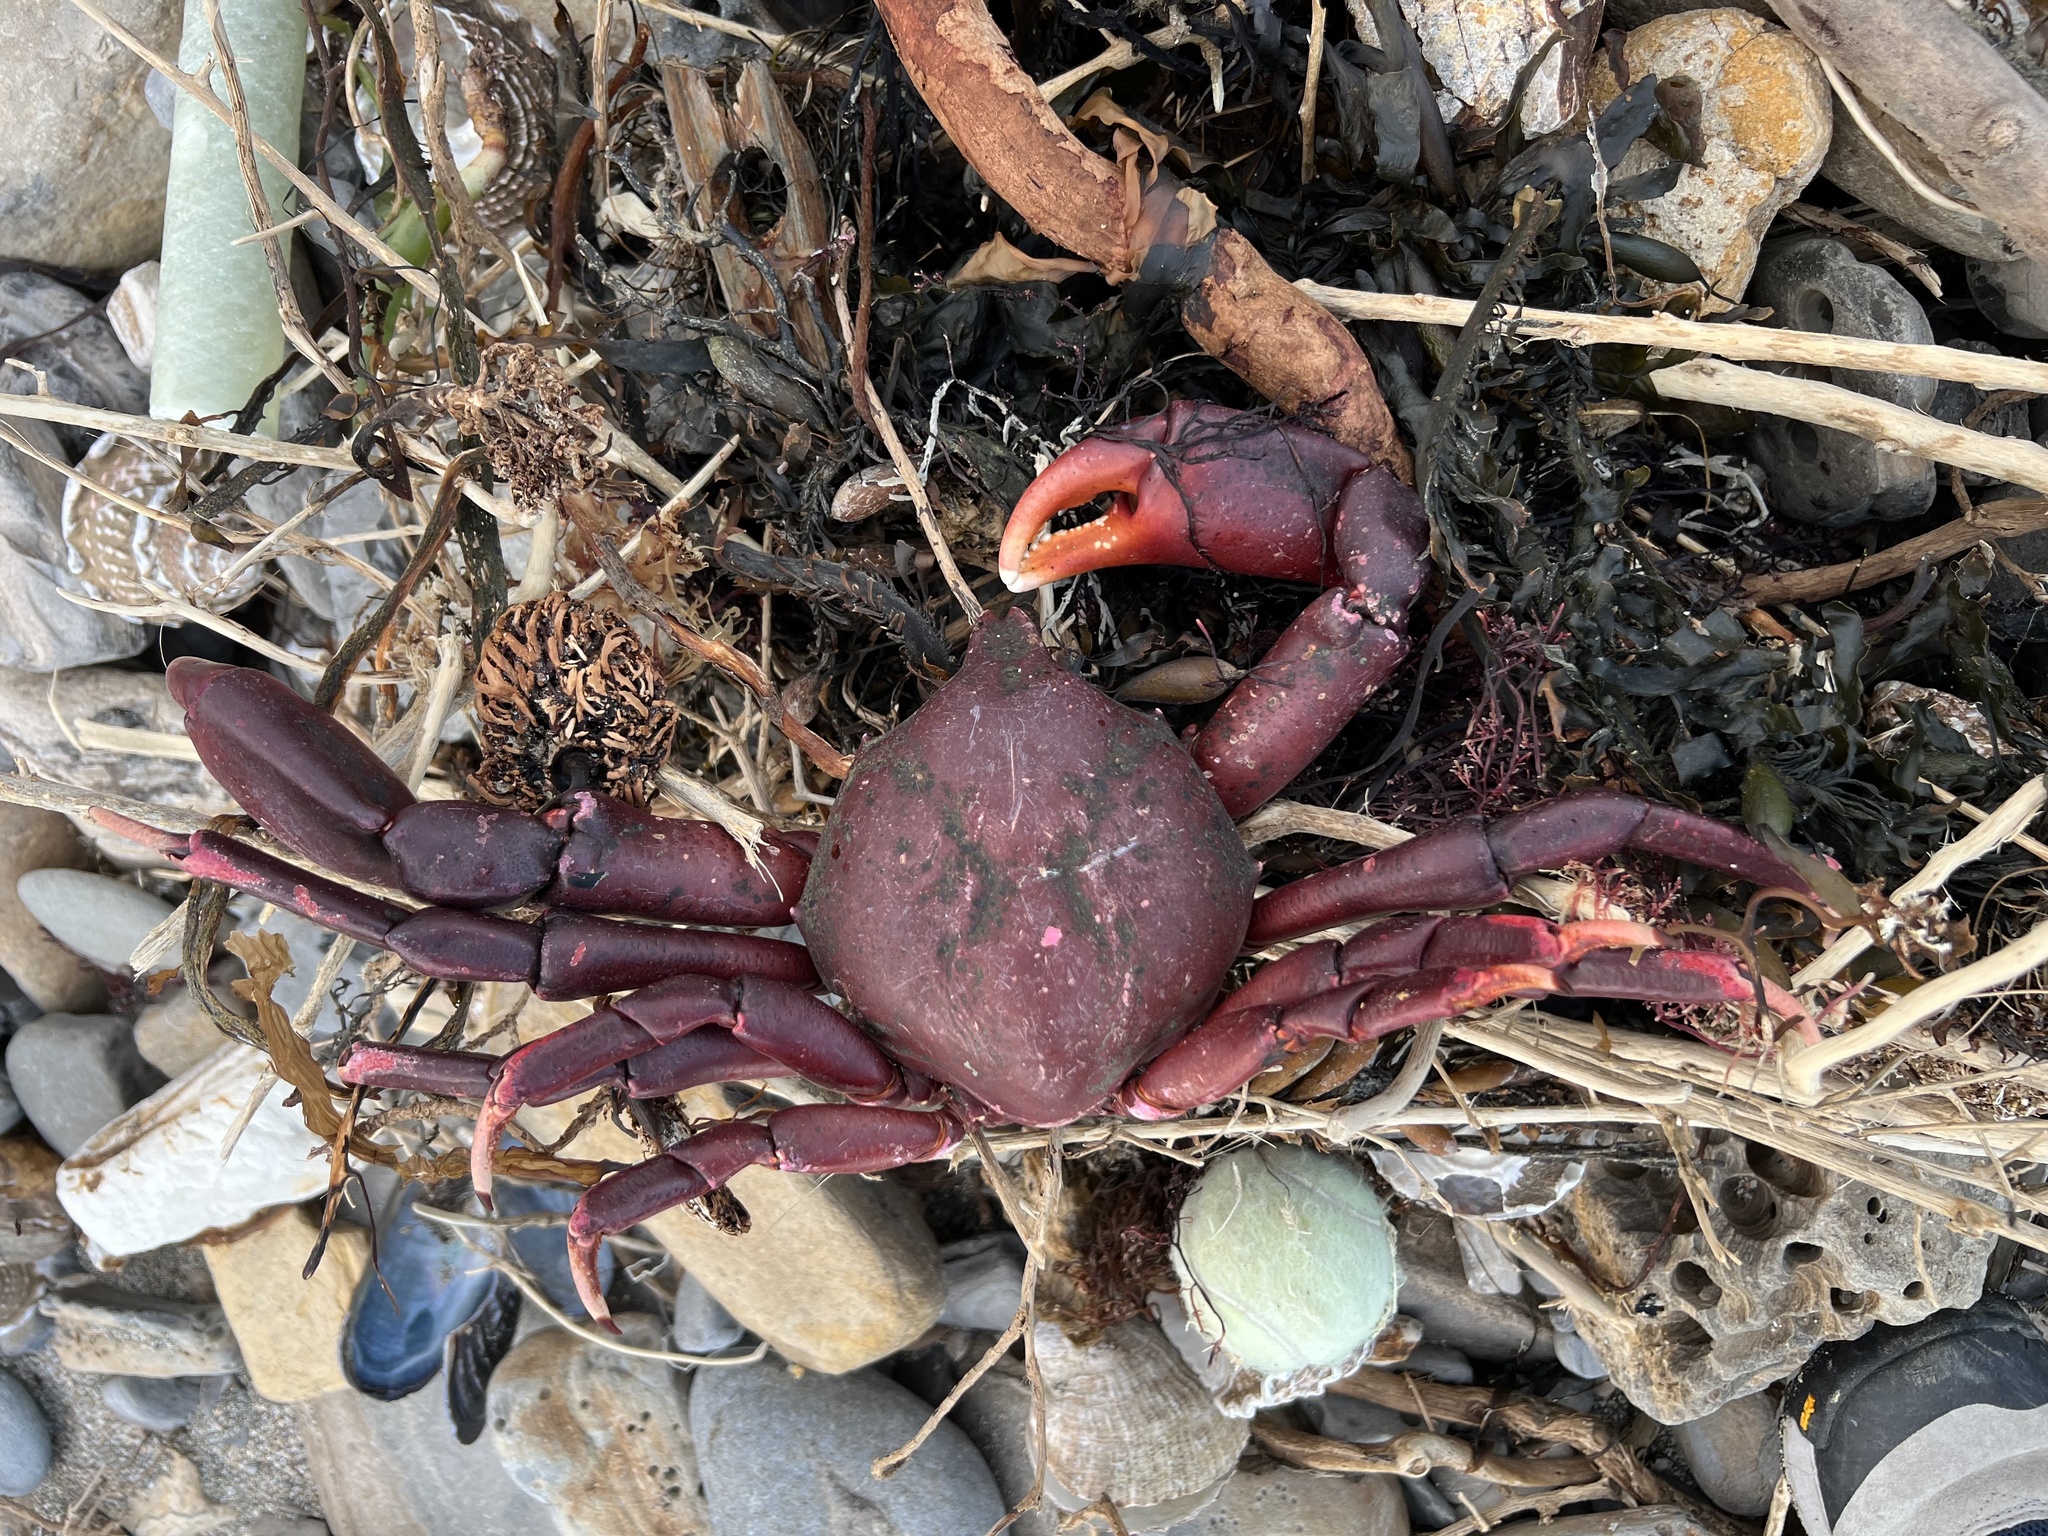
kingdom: Animalia
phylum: Arthropoda
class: Malacostraca
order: Decapoda
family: Epialtidae
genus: Taliepus
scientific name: Taliepus nuttallii
